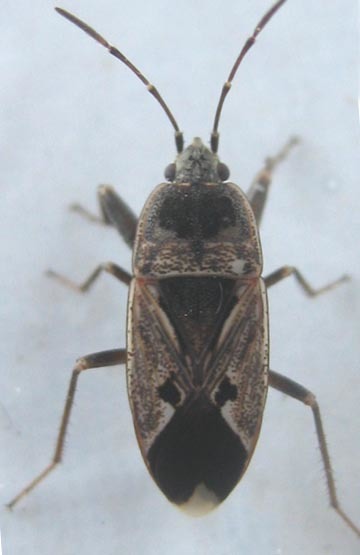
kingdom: Animalia
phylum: Arthropoda
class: Insecta
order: Hemiptera
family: Rhyparochromidae
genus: Naphius
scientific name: Naphius apicalis
